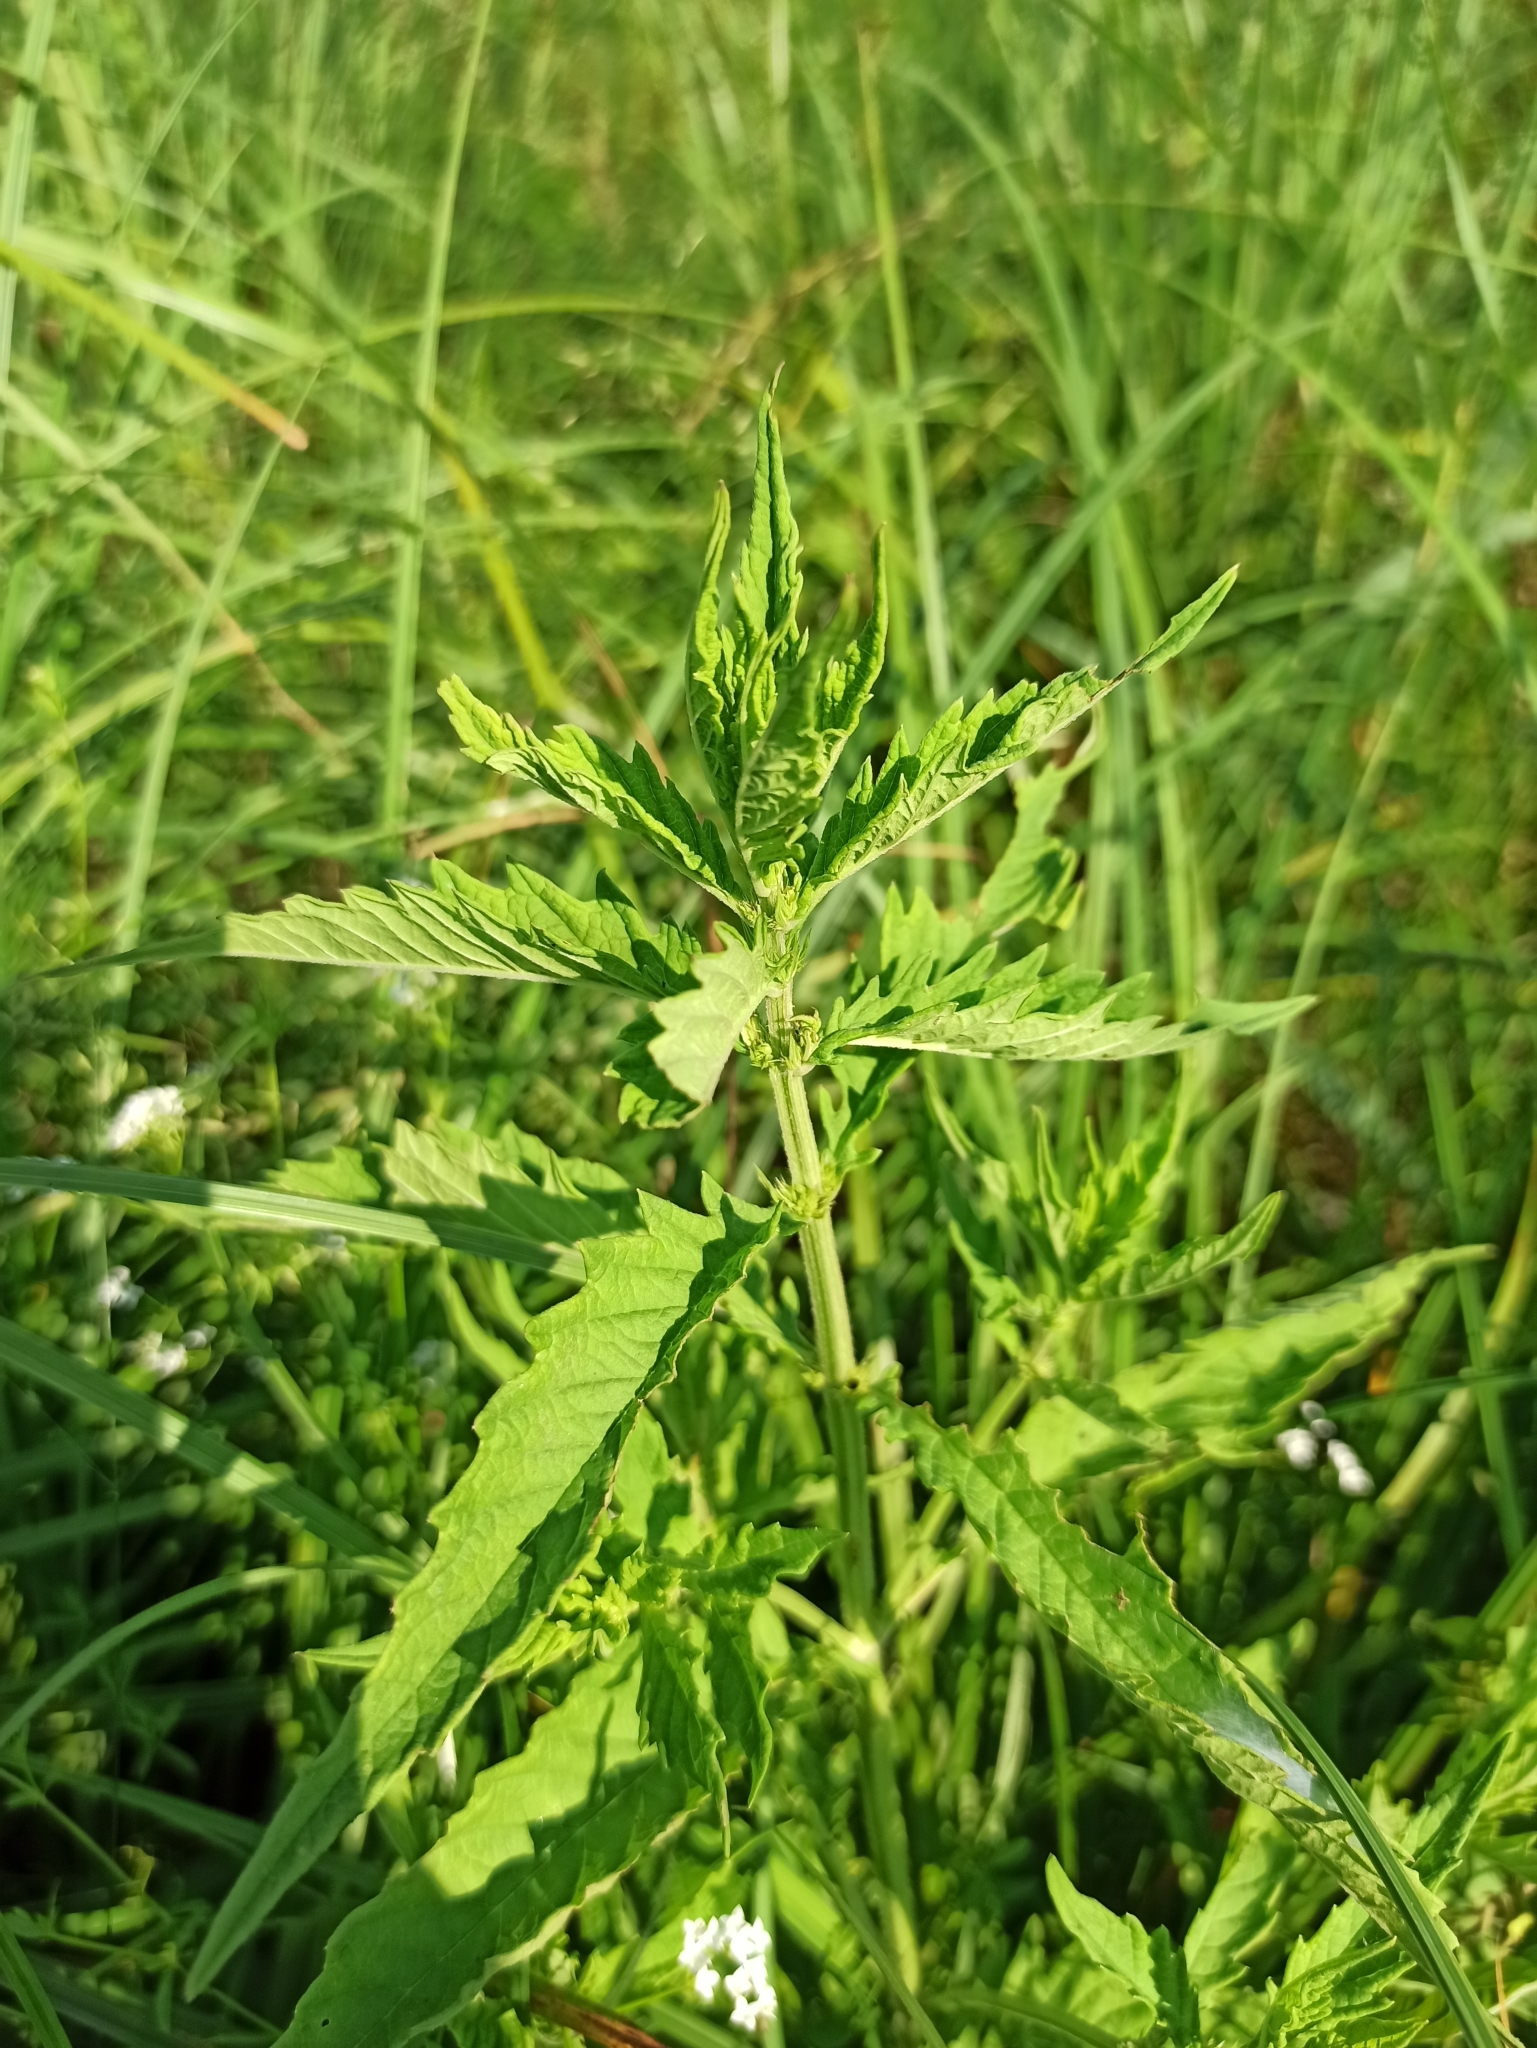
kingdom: Plantae
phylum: Tracheophyta
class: Magnoliopsida
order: Lamiales
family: Lamiaceae
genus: Lycopus
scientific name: Lycopus europaeus
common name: European bugleweed
